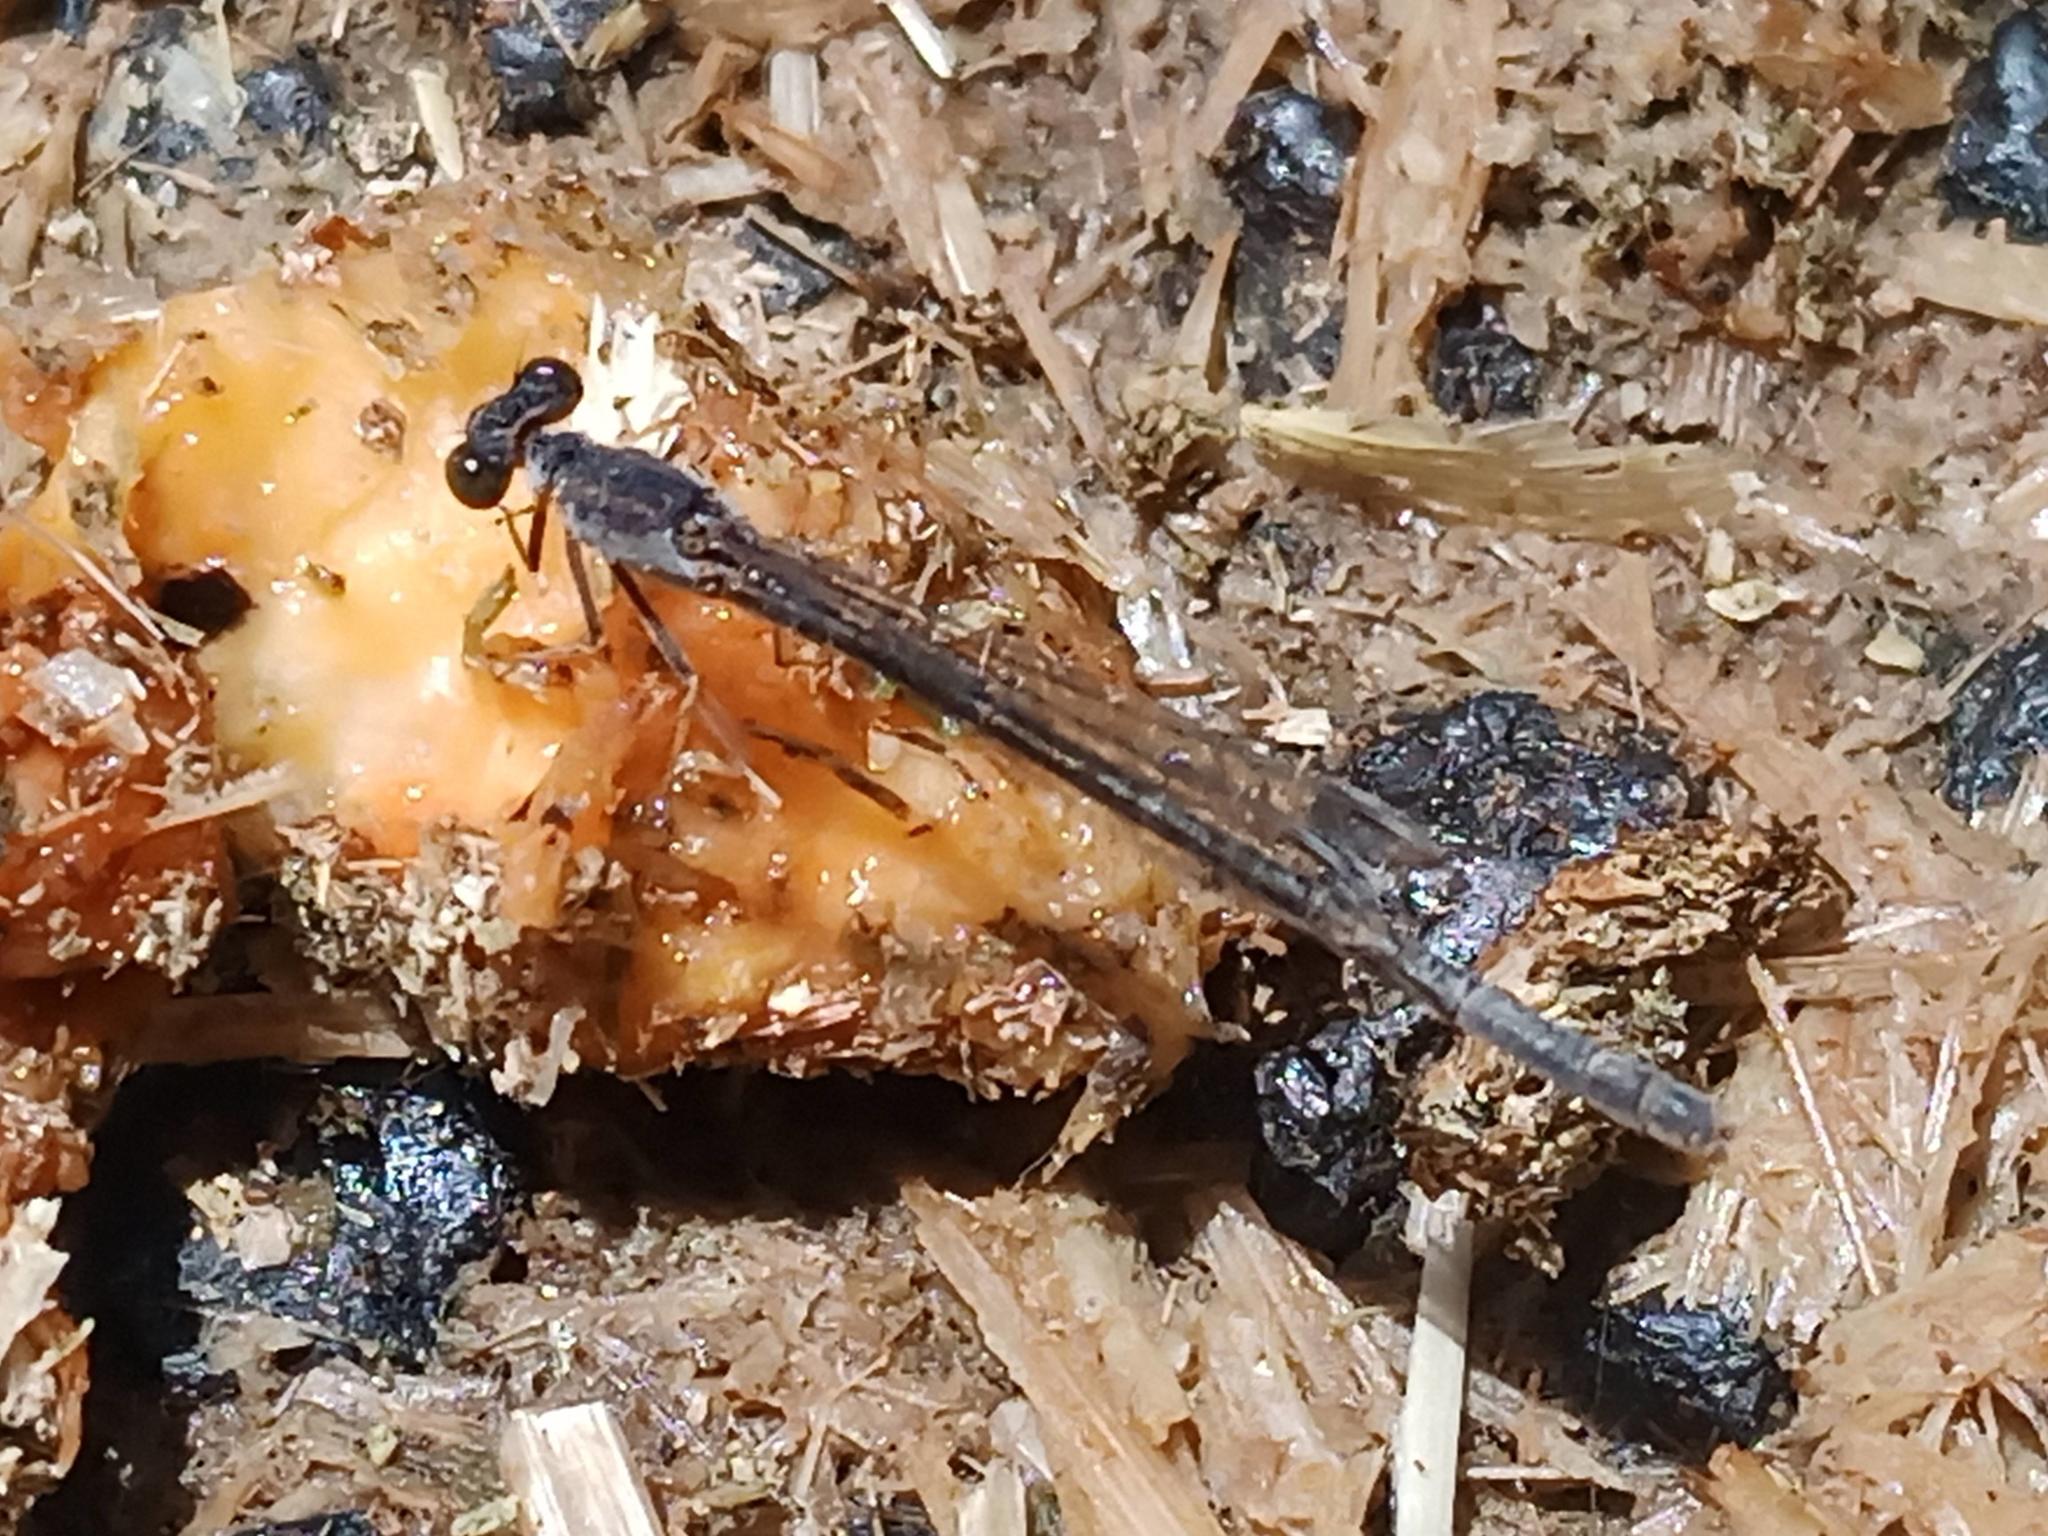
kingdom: Animalia
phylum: Arthropoda
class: Insecta
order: Odonata
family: Coenagrionidae
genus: Ischnura
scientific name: Ischnura senegalensis
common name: Tropical bluetail
